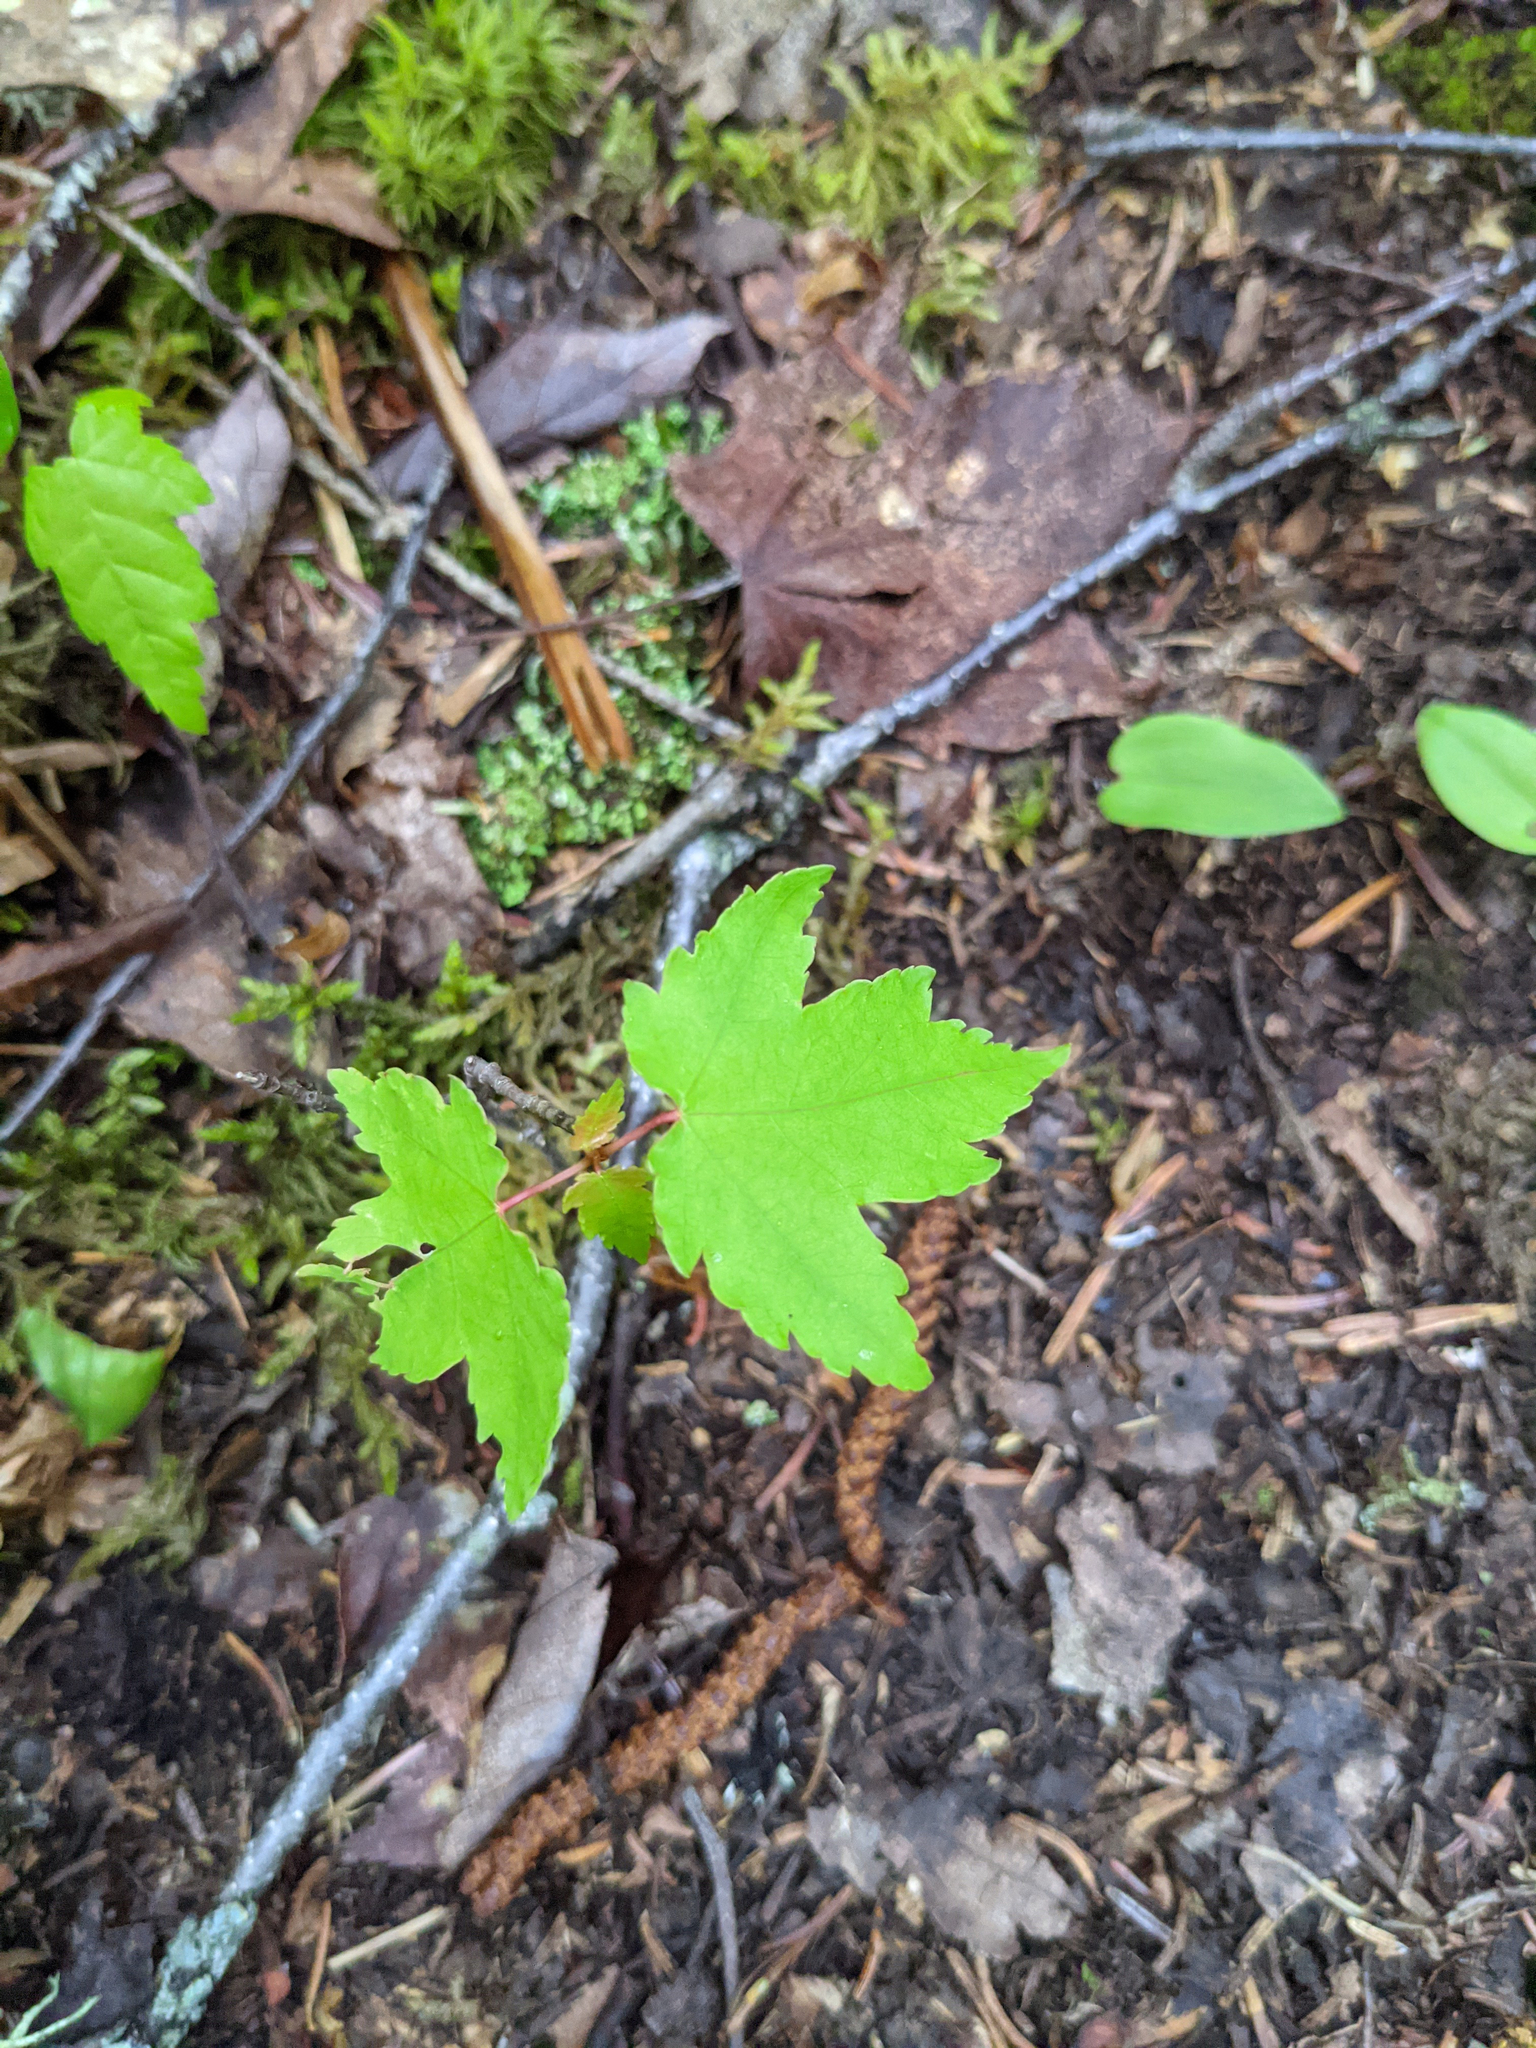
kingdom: Plantae
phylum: Tracheophyta
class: Magnoliopsida
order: Sapindales
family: Sapindaceae
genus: Acer
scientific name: Acer rubrum
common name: Red maple
